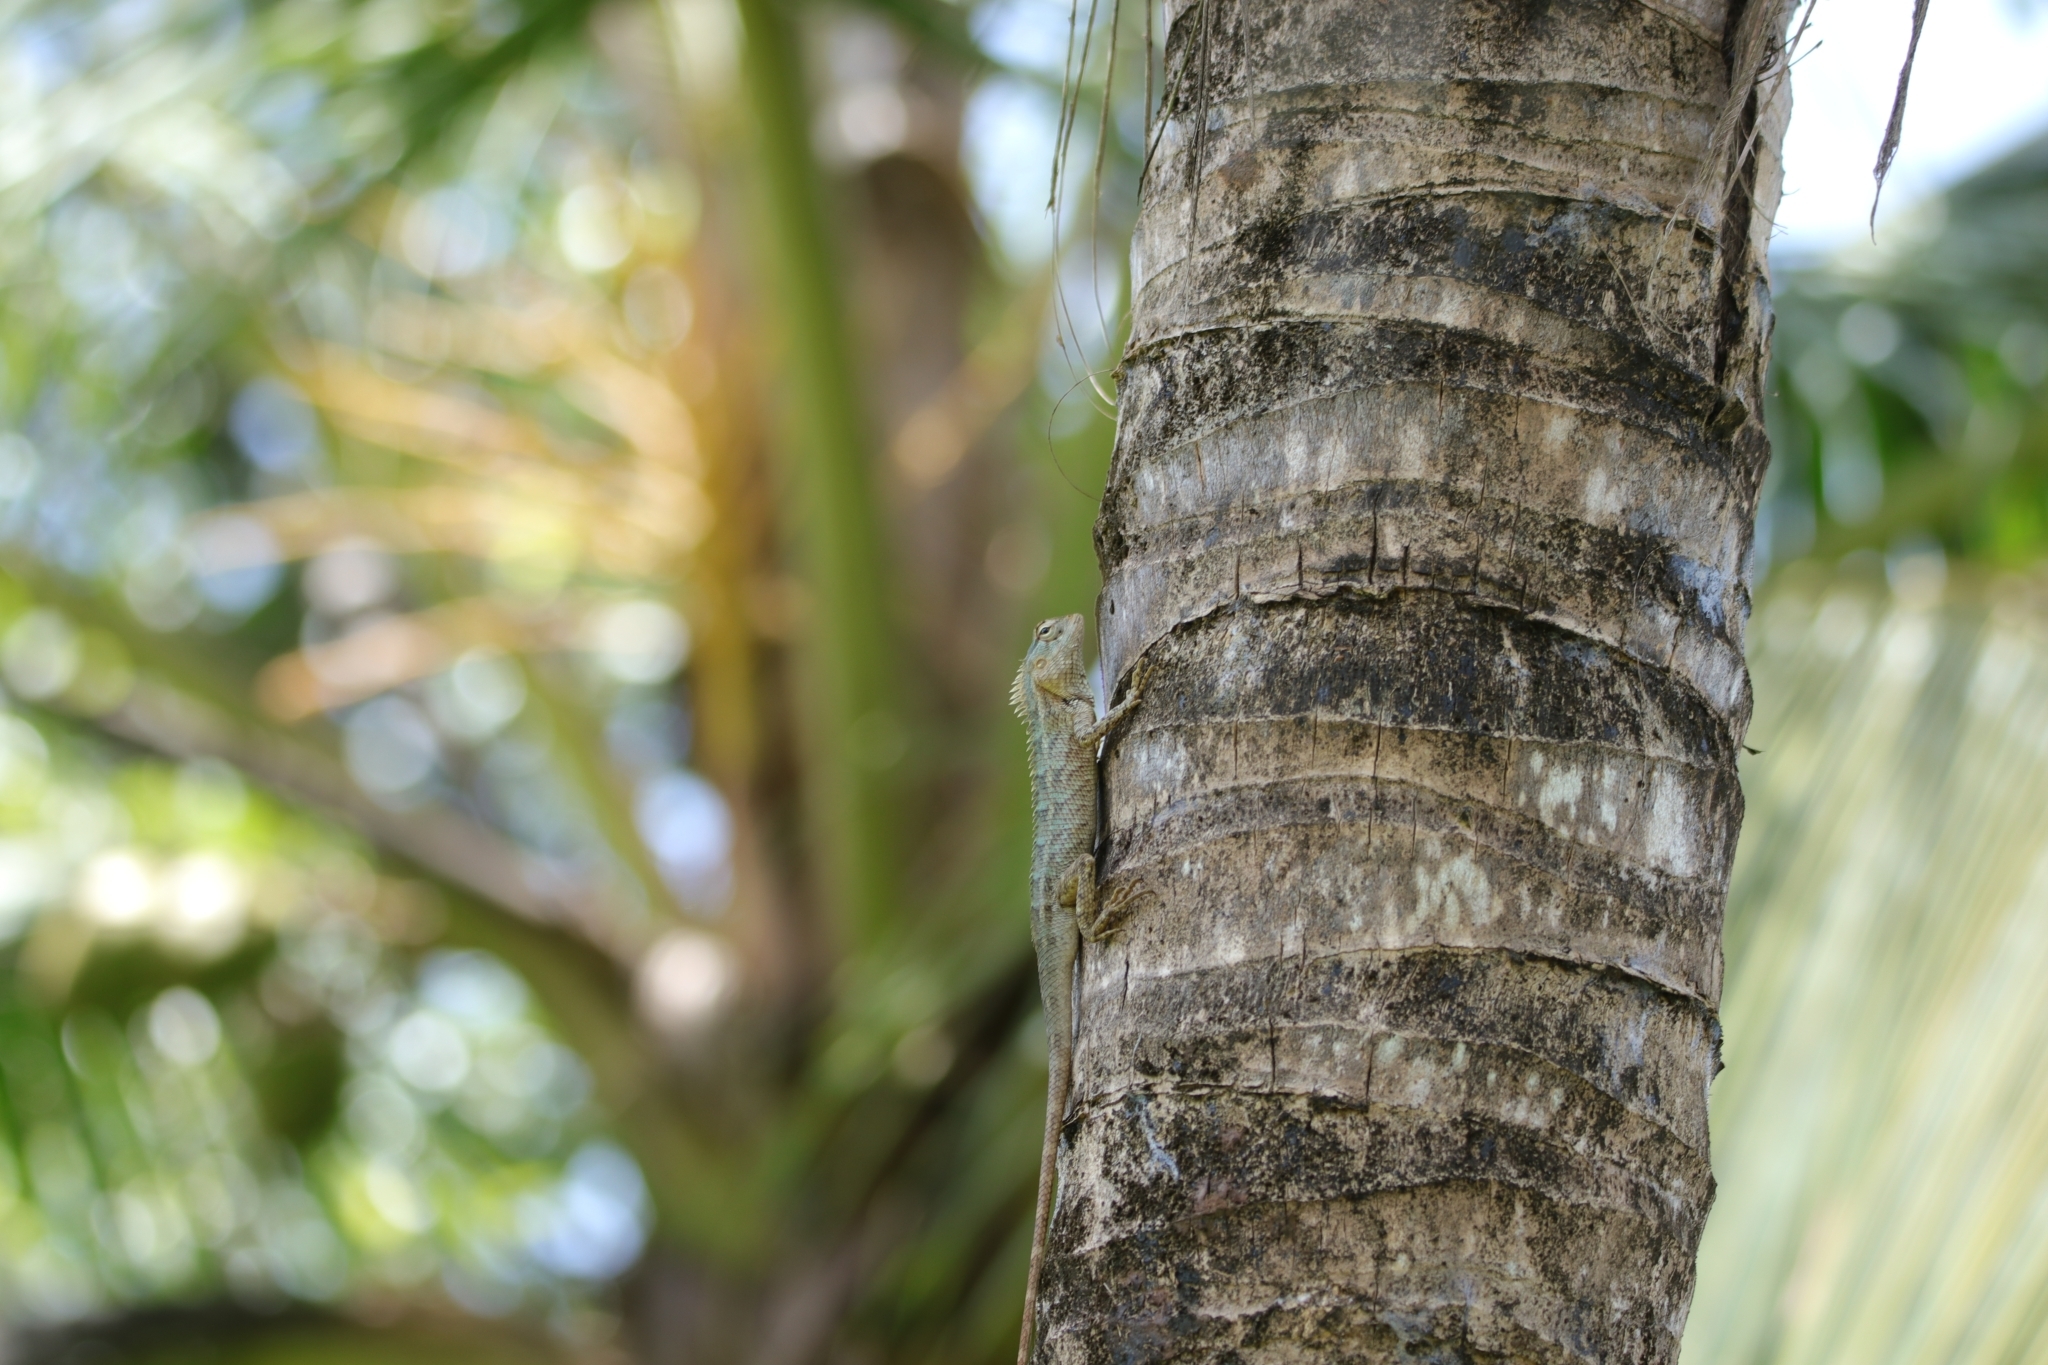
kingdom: Animalia
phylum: Chordata
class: Squamata
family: Agamidae
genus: Calotes
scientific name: Calotes versicolor
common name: Oriental garden lizard
